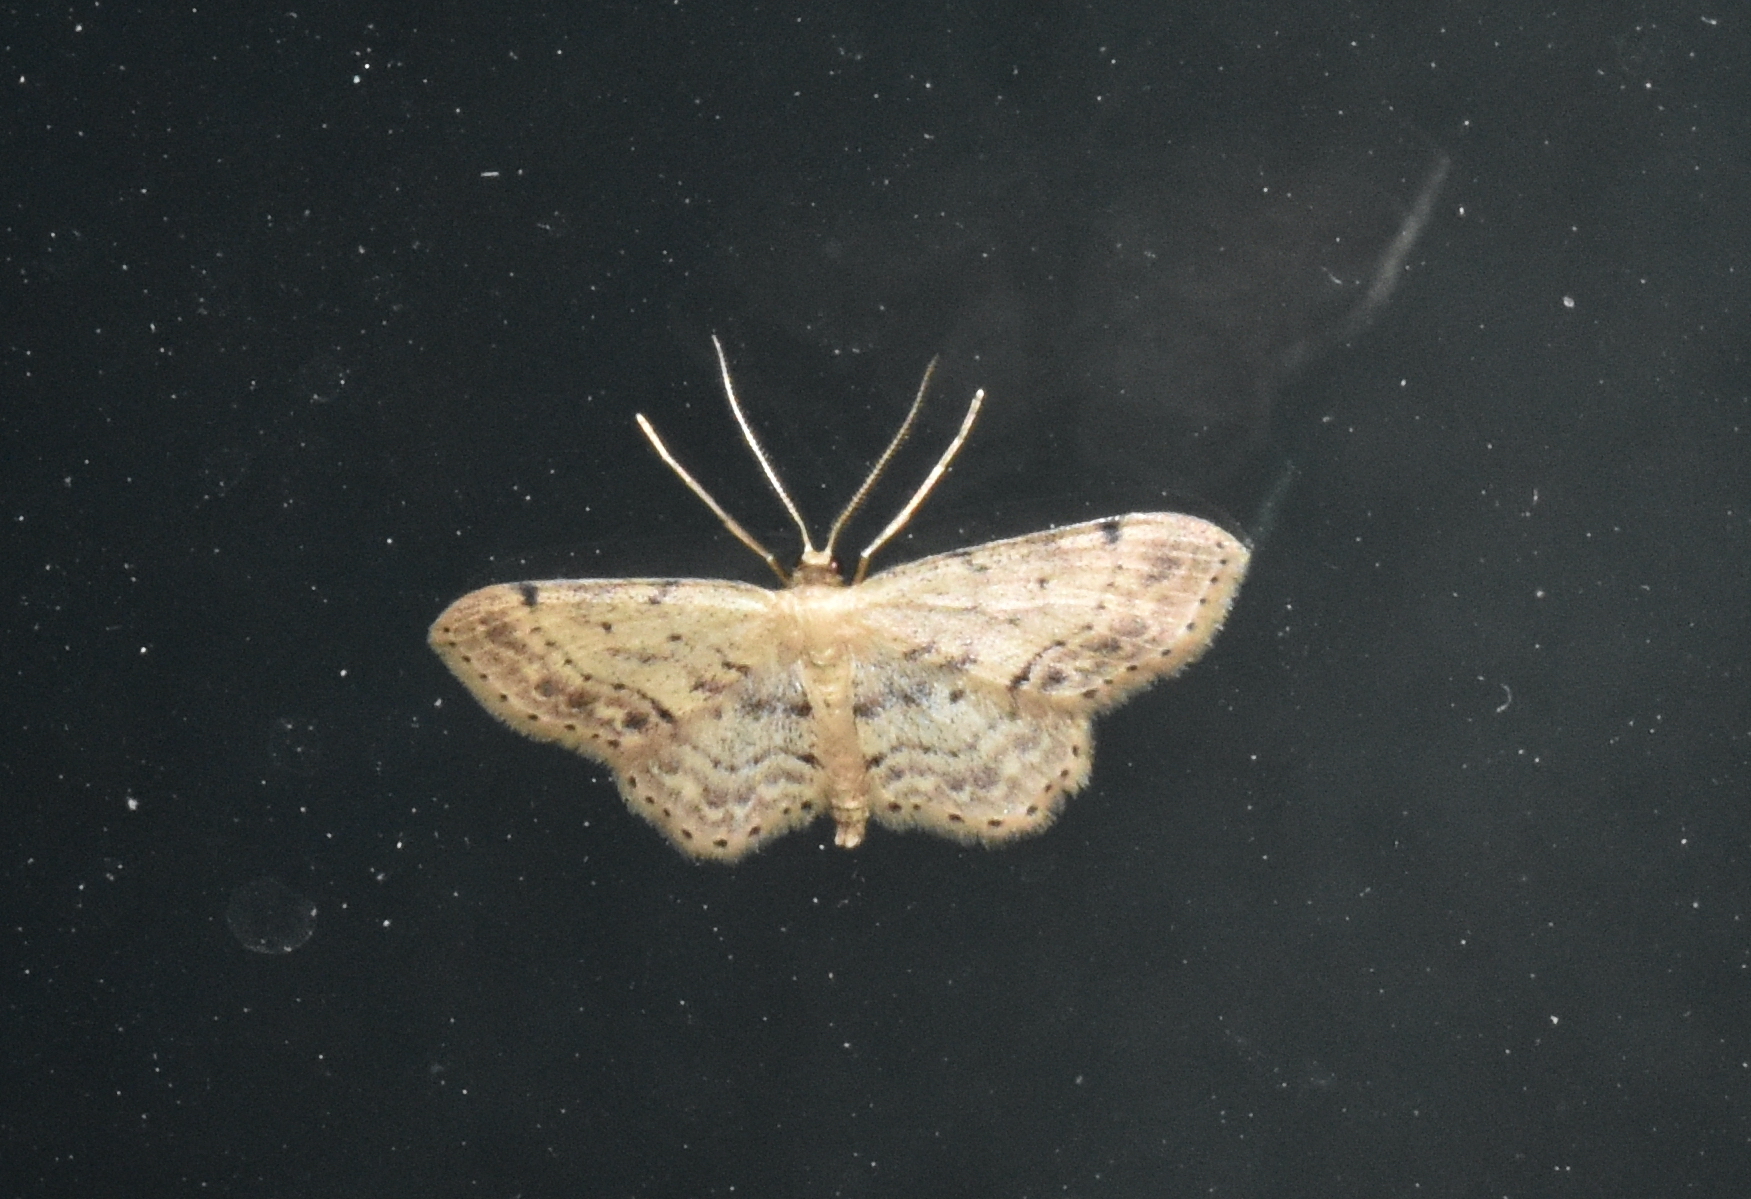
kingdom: Animalia
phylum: Arthropoda
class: Insecta
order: Lepidoptera
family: Geometridae
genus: Idaea
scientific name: Idaea dimidiata
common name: Single-dotted wave
